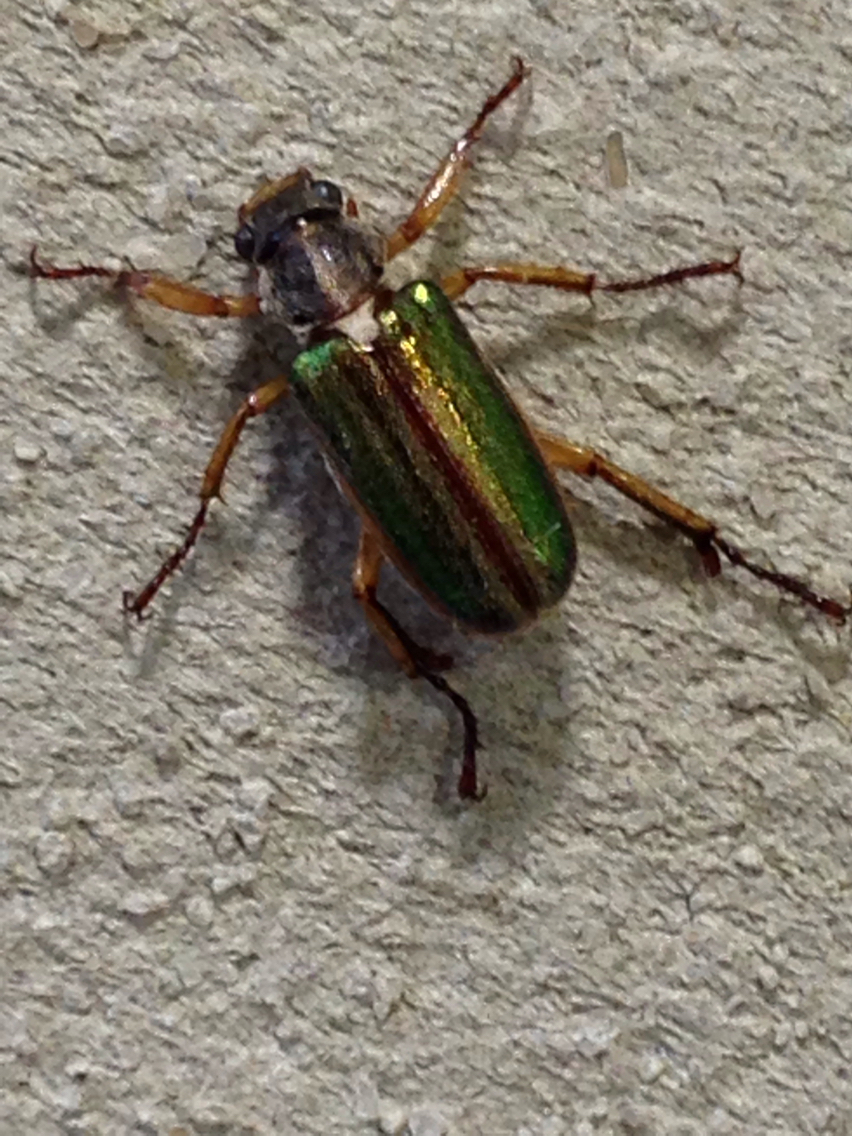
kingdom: Animalia
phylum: Arthropoda
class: Insecta
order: Coleoptera
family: Scarabaeidae
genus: Dichelonyx
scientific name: Dichelonyx albicollis
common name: White-necked pine-beetle
